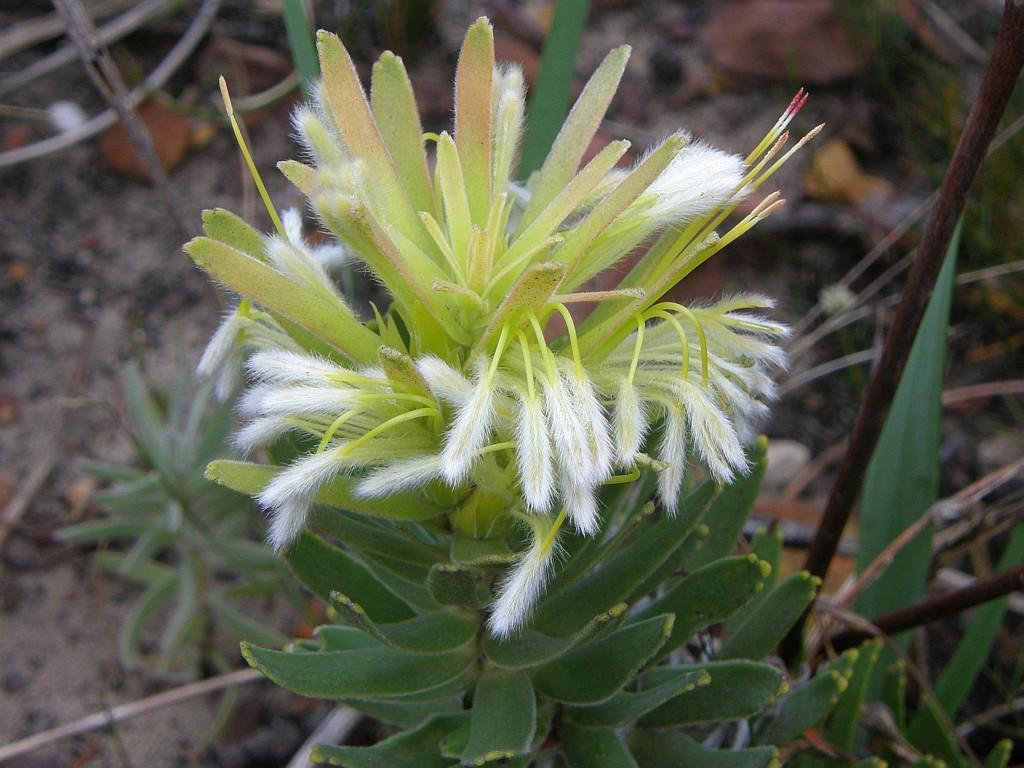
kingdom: Plantae
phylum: Tracheophyta
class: Magnoliopsida
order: Proteales
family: Proteaceae
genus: Mimetes
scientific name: Mimetes cucullatus
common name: Common pagoda
